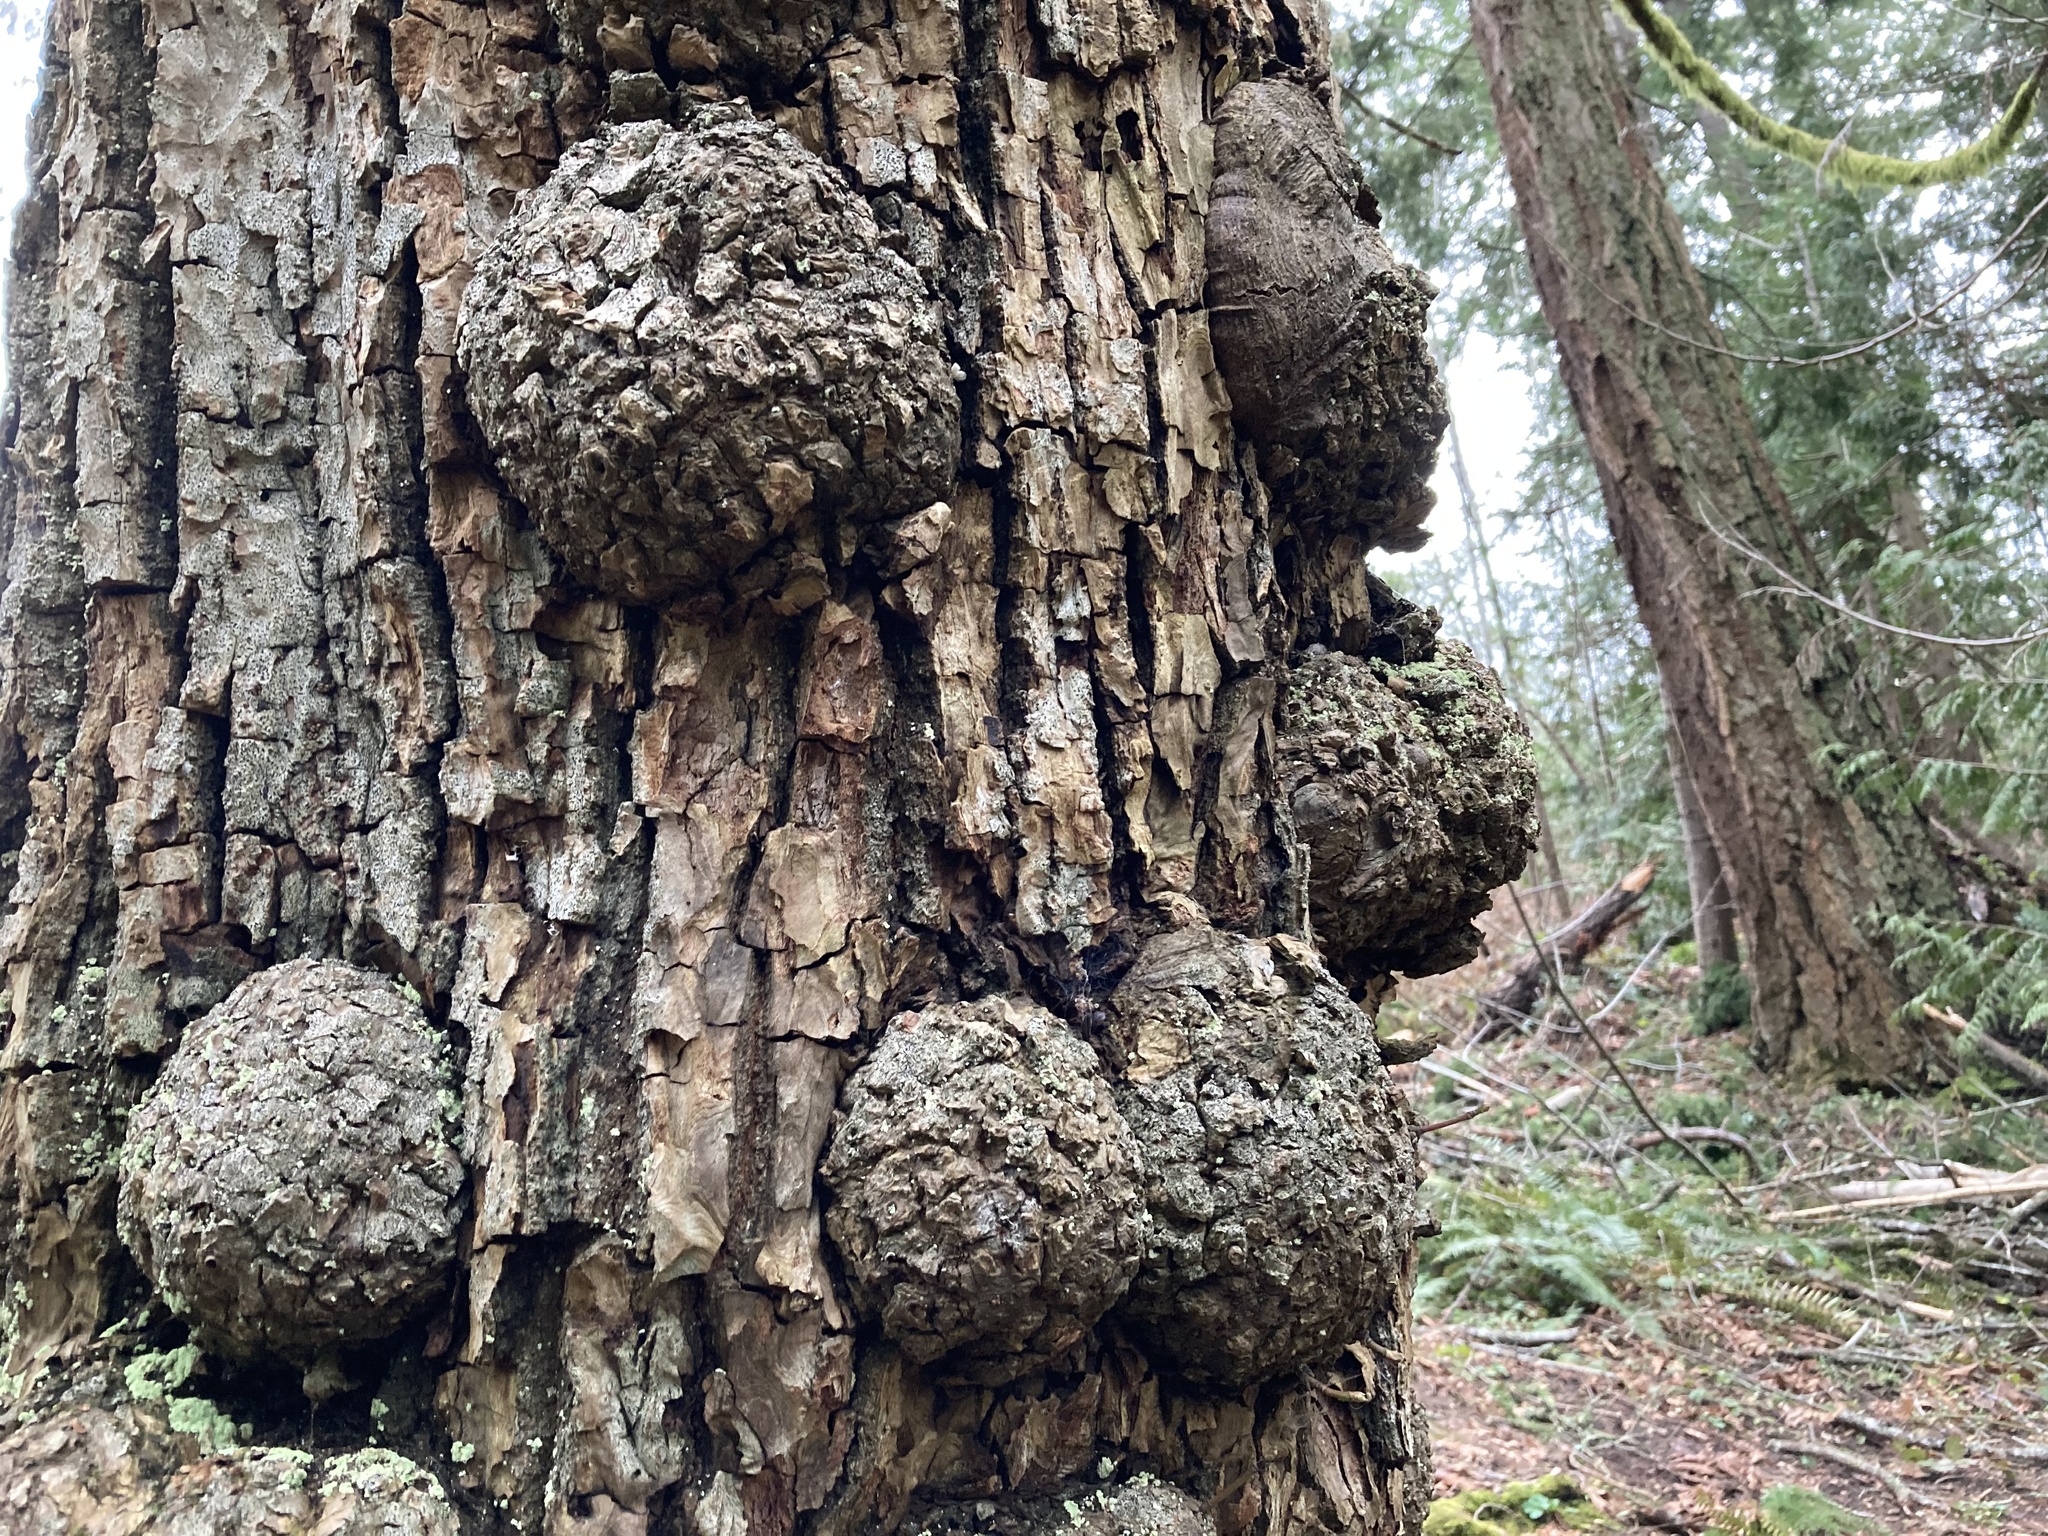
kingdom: Bacteria
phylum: Proteobacteria
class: Alphaproteobacteria
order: Rhizobiales
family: Rhizobiaceae
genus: Rhizobium
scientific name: Rhizobium Agrobacterium radiobacter
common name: Bacterial crown gall
